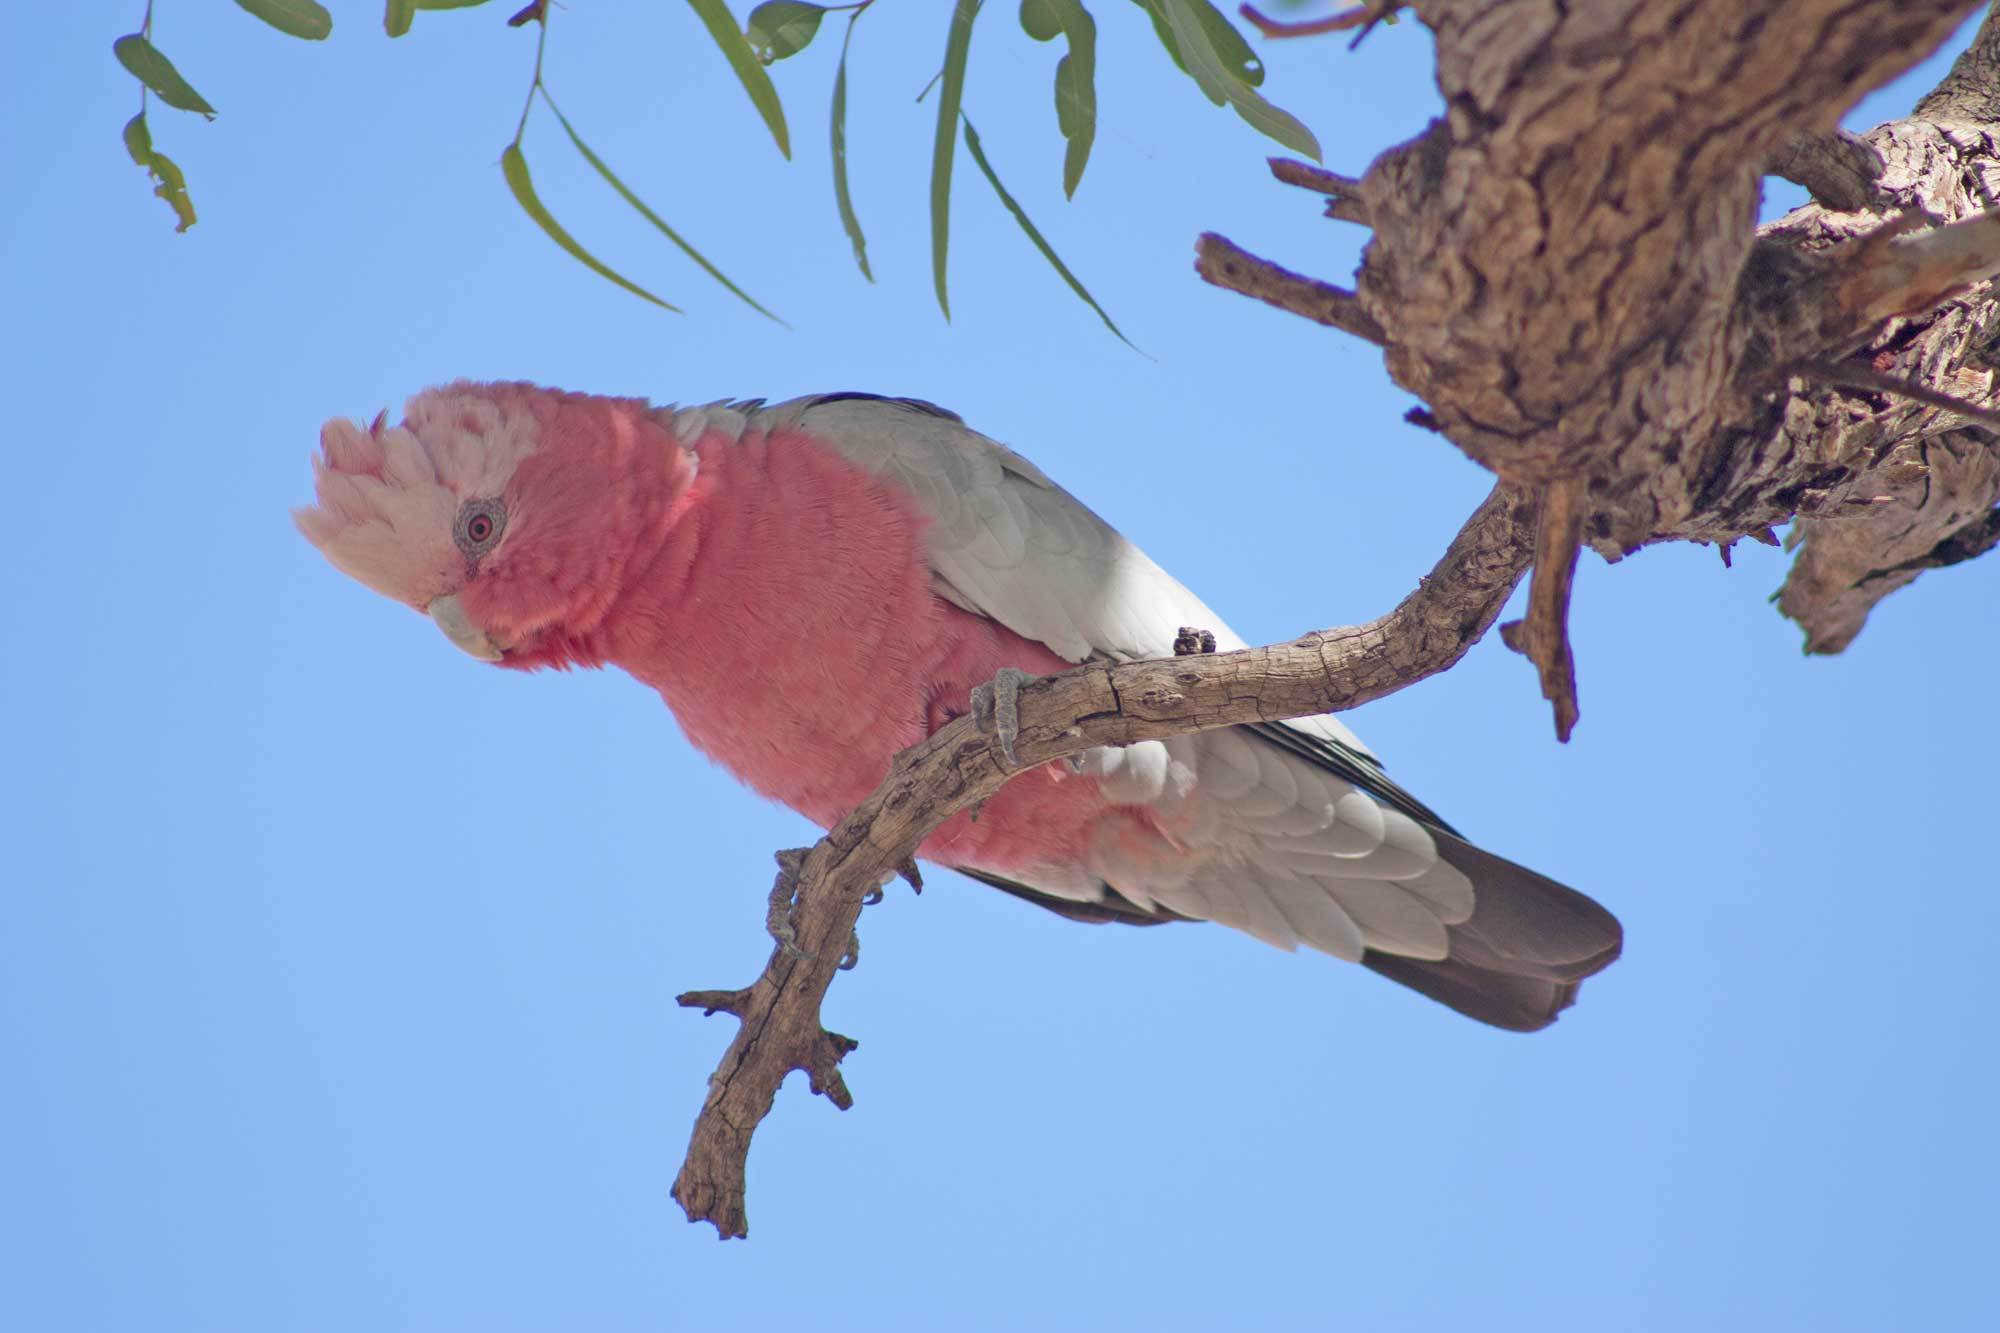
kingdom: Animalia
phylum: Chordata
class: Aves
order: Psittaciformes
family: Psittacidae
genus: Eolophus
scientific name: Eolophus roseicapilla
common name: Galah
